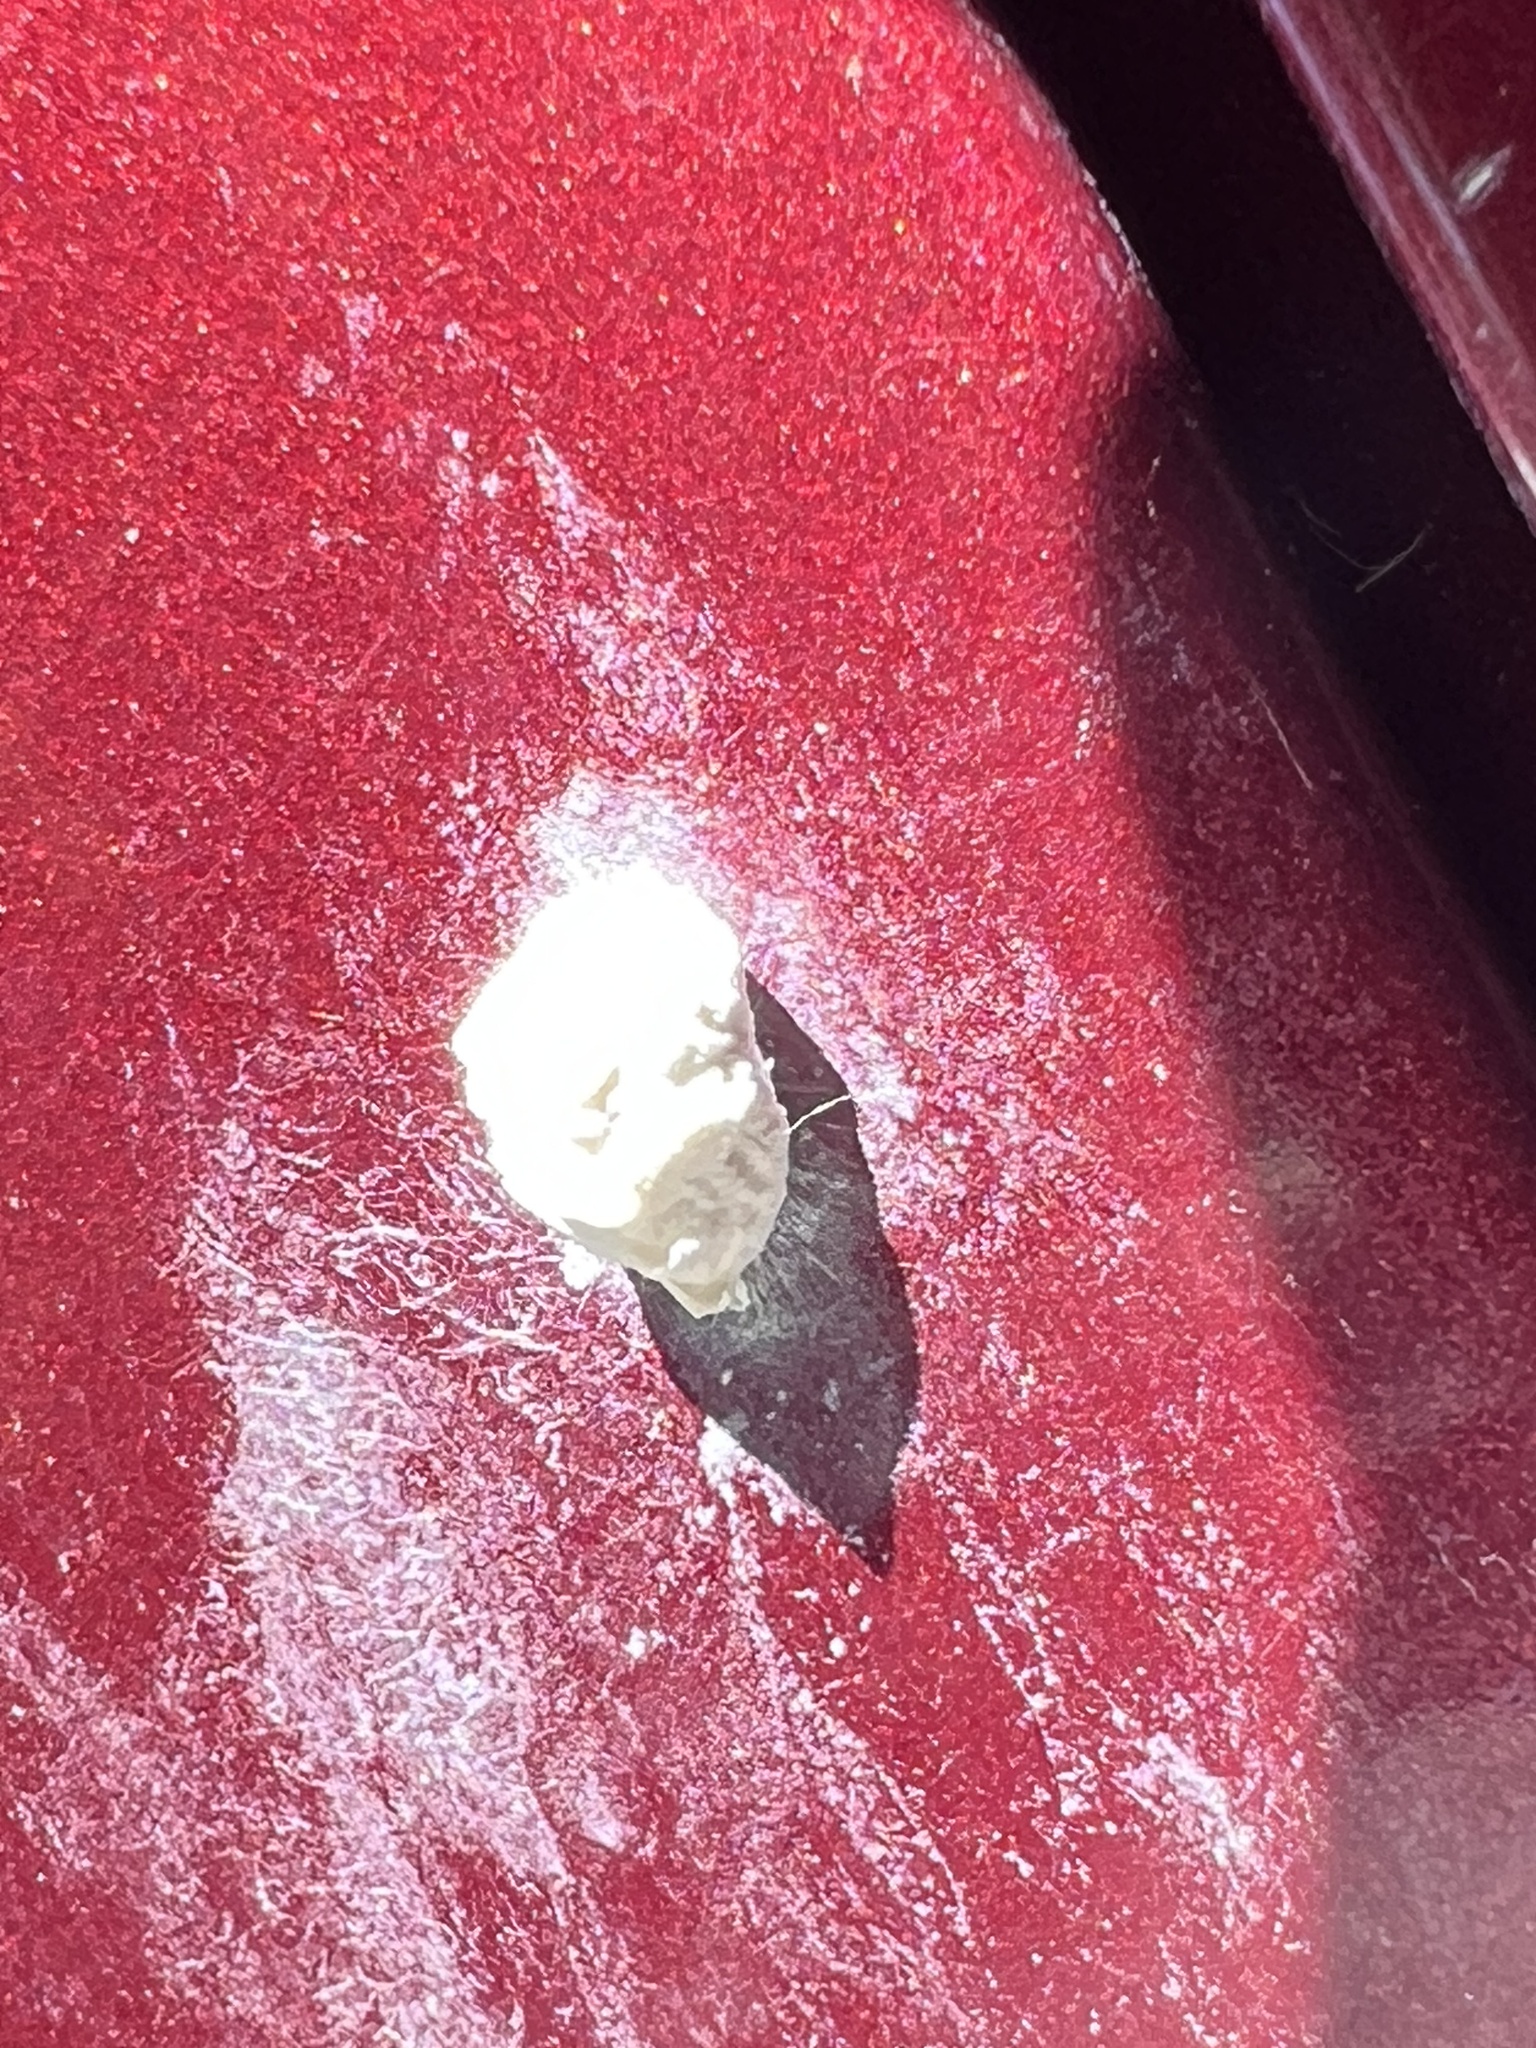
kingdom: Animalia
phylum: Arthropoda
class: Insecta
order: Lepidoptera
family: Epipyropidae
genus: Fulgoraecia
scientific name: Fulgoraecia exigua
